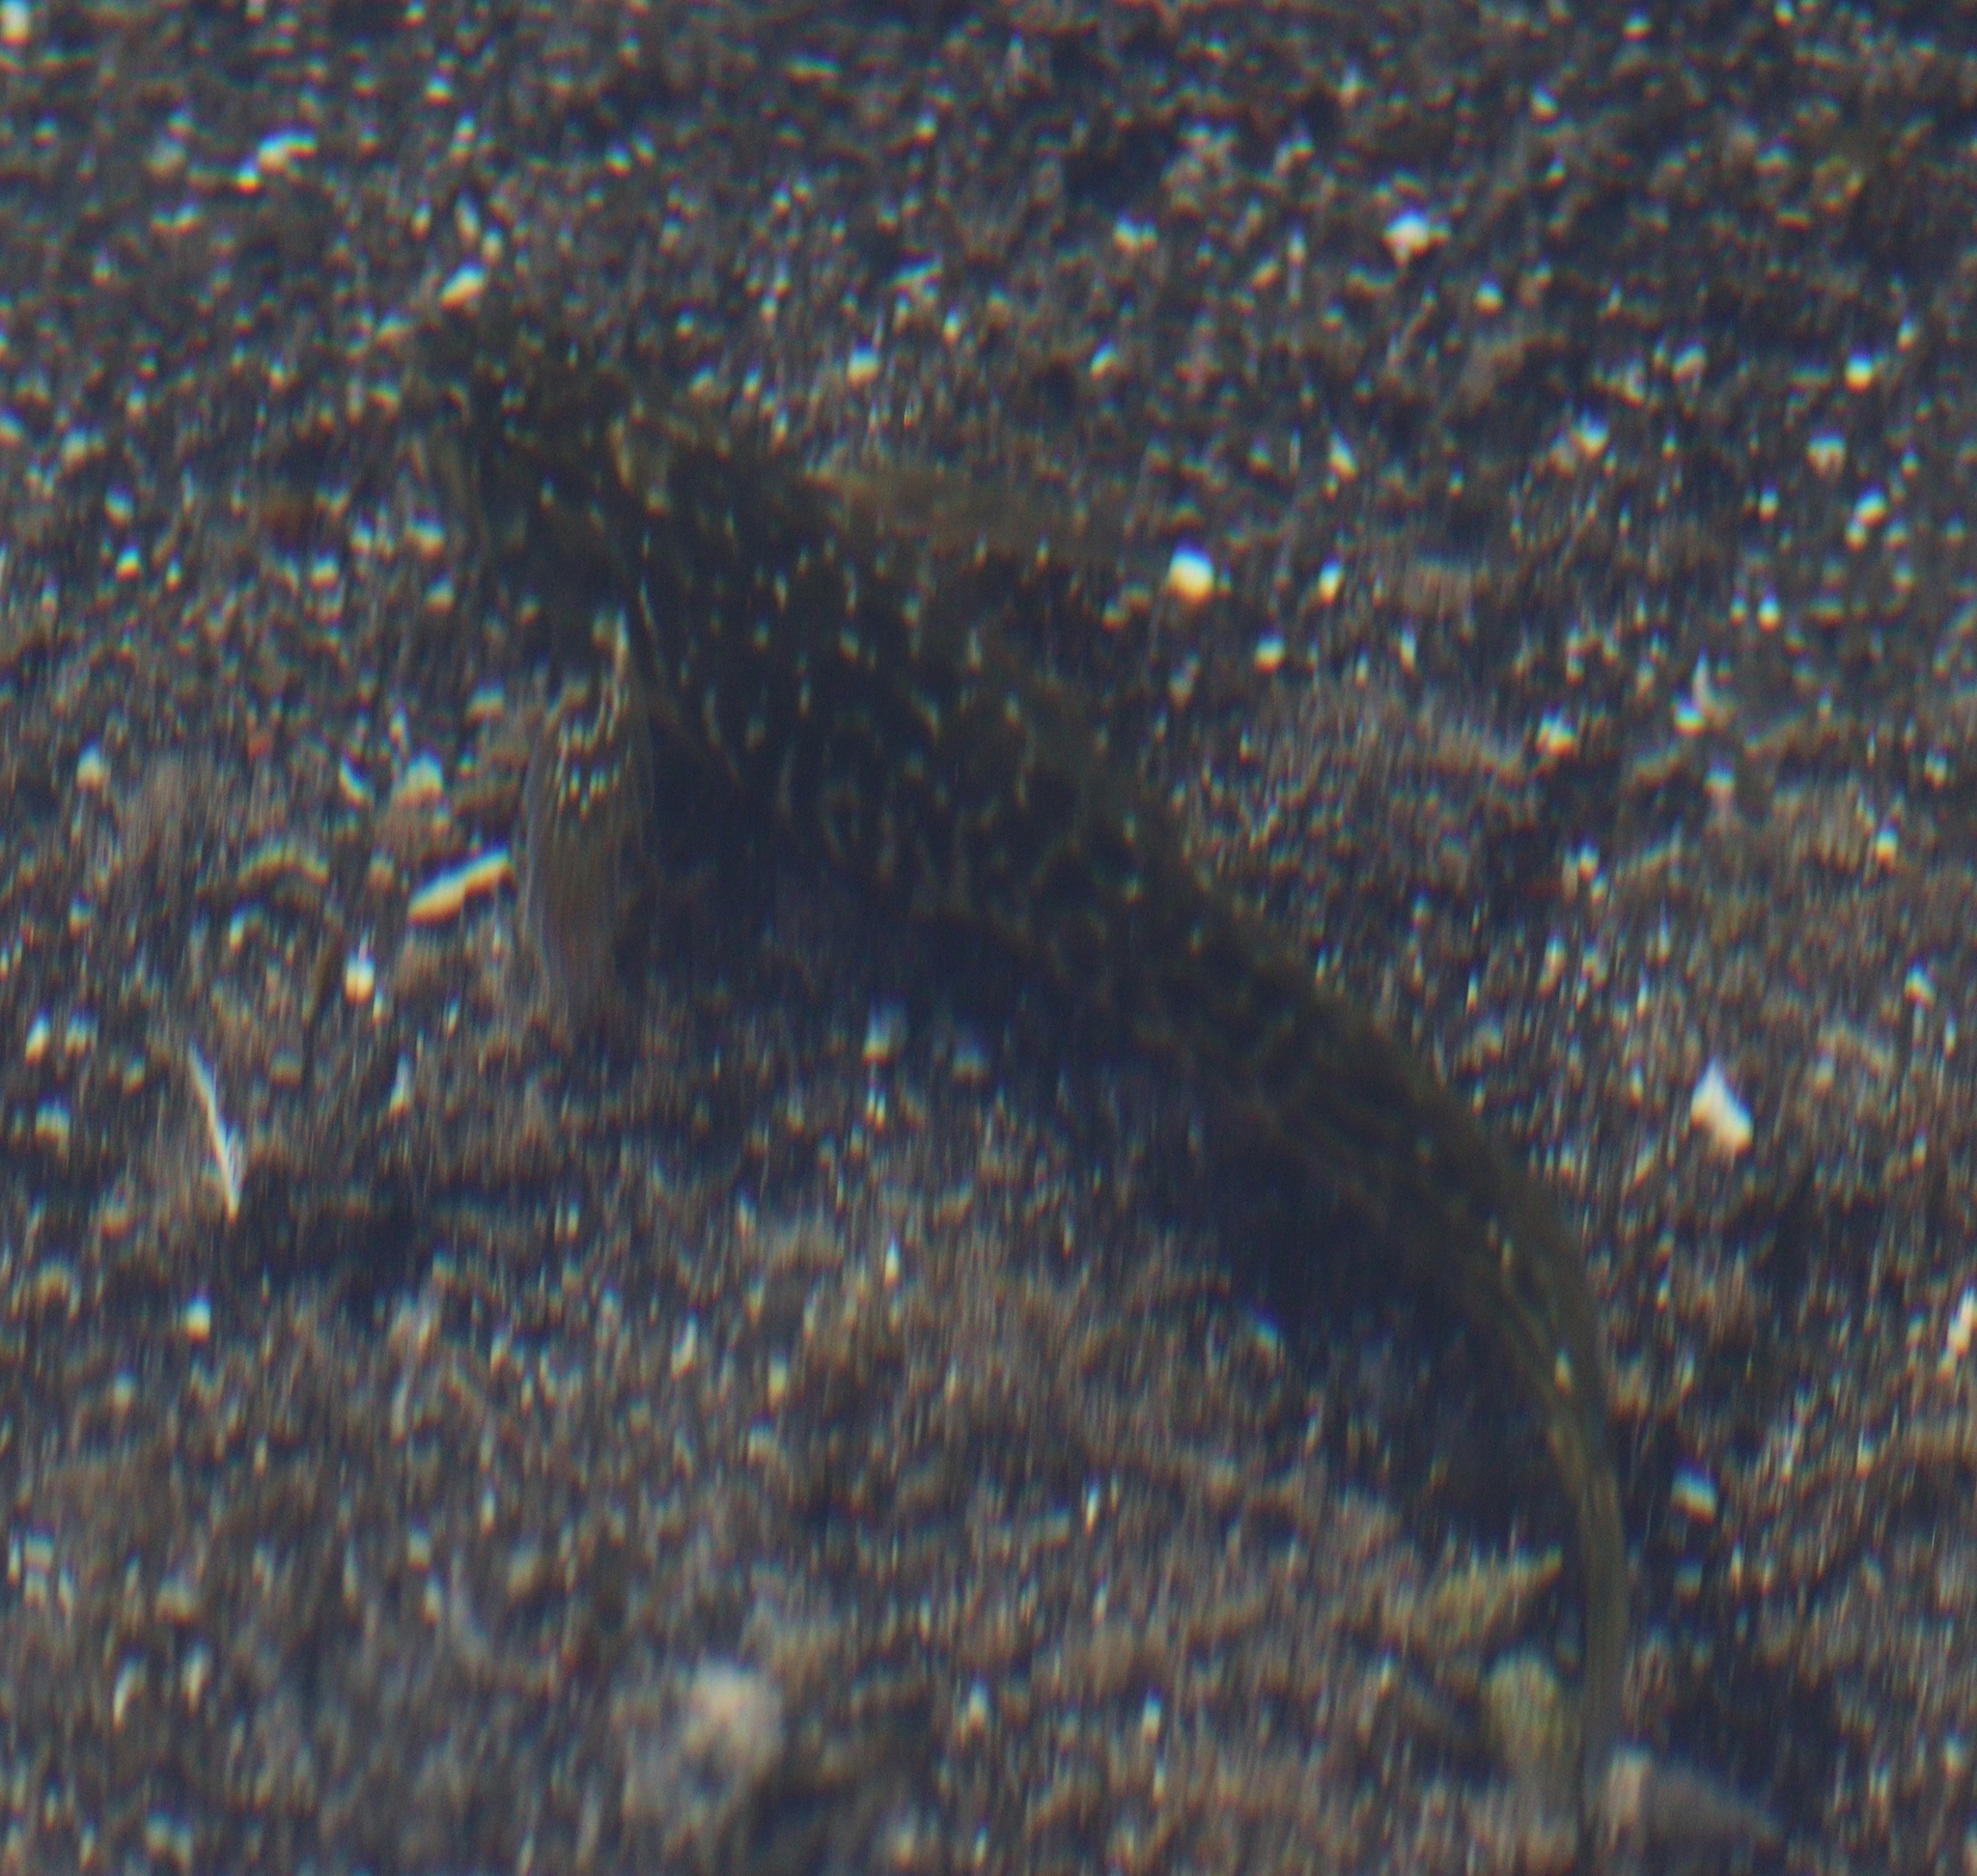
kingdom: Animalia
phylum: Chordata
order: Perciformes
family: Blenniidae
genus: Parablennius
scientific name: Parablennius parvicornis
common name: Rock-pool blenny
